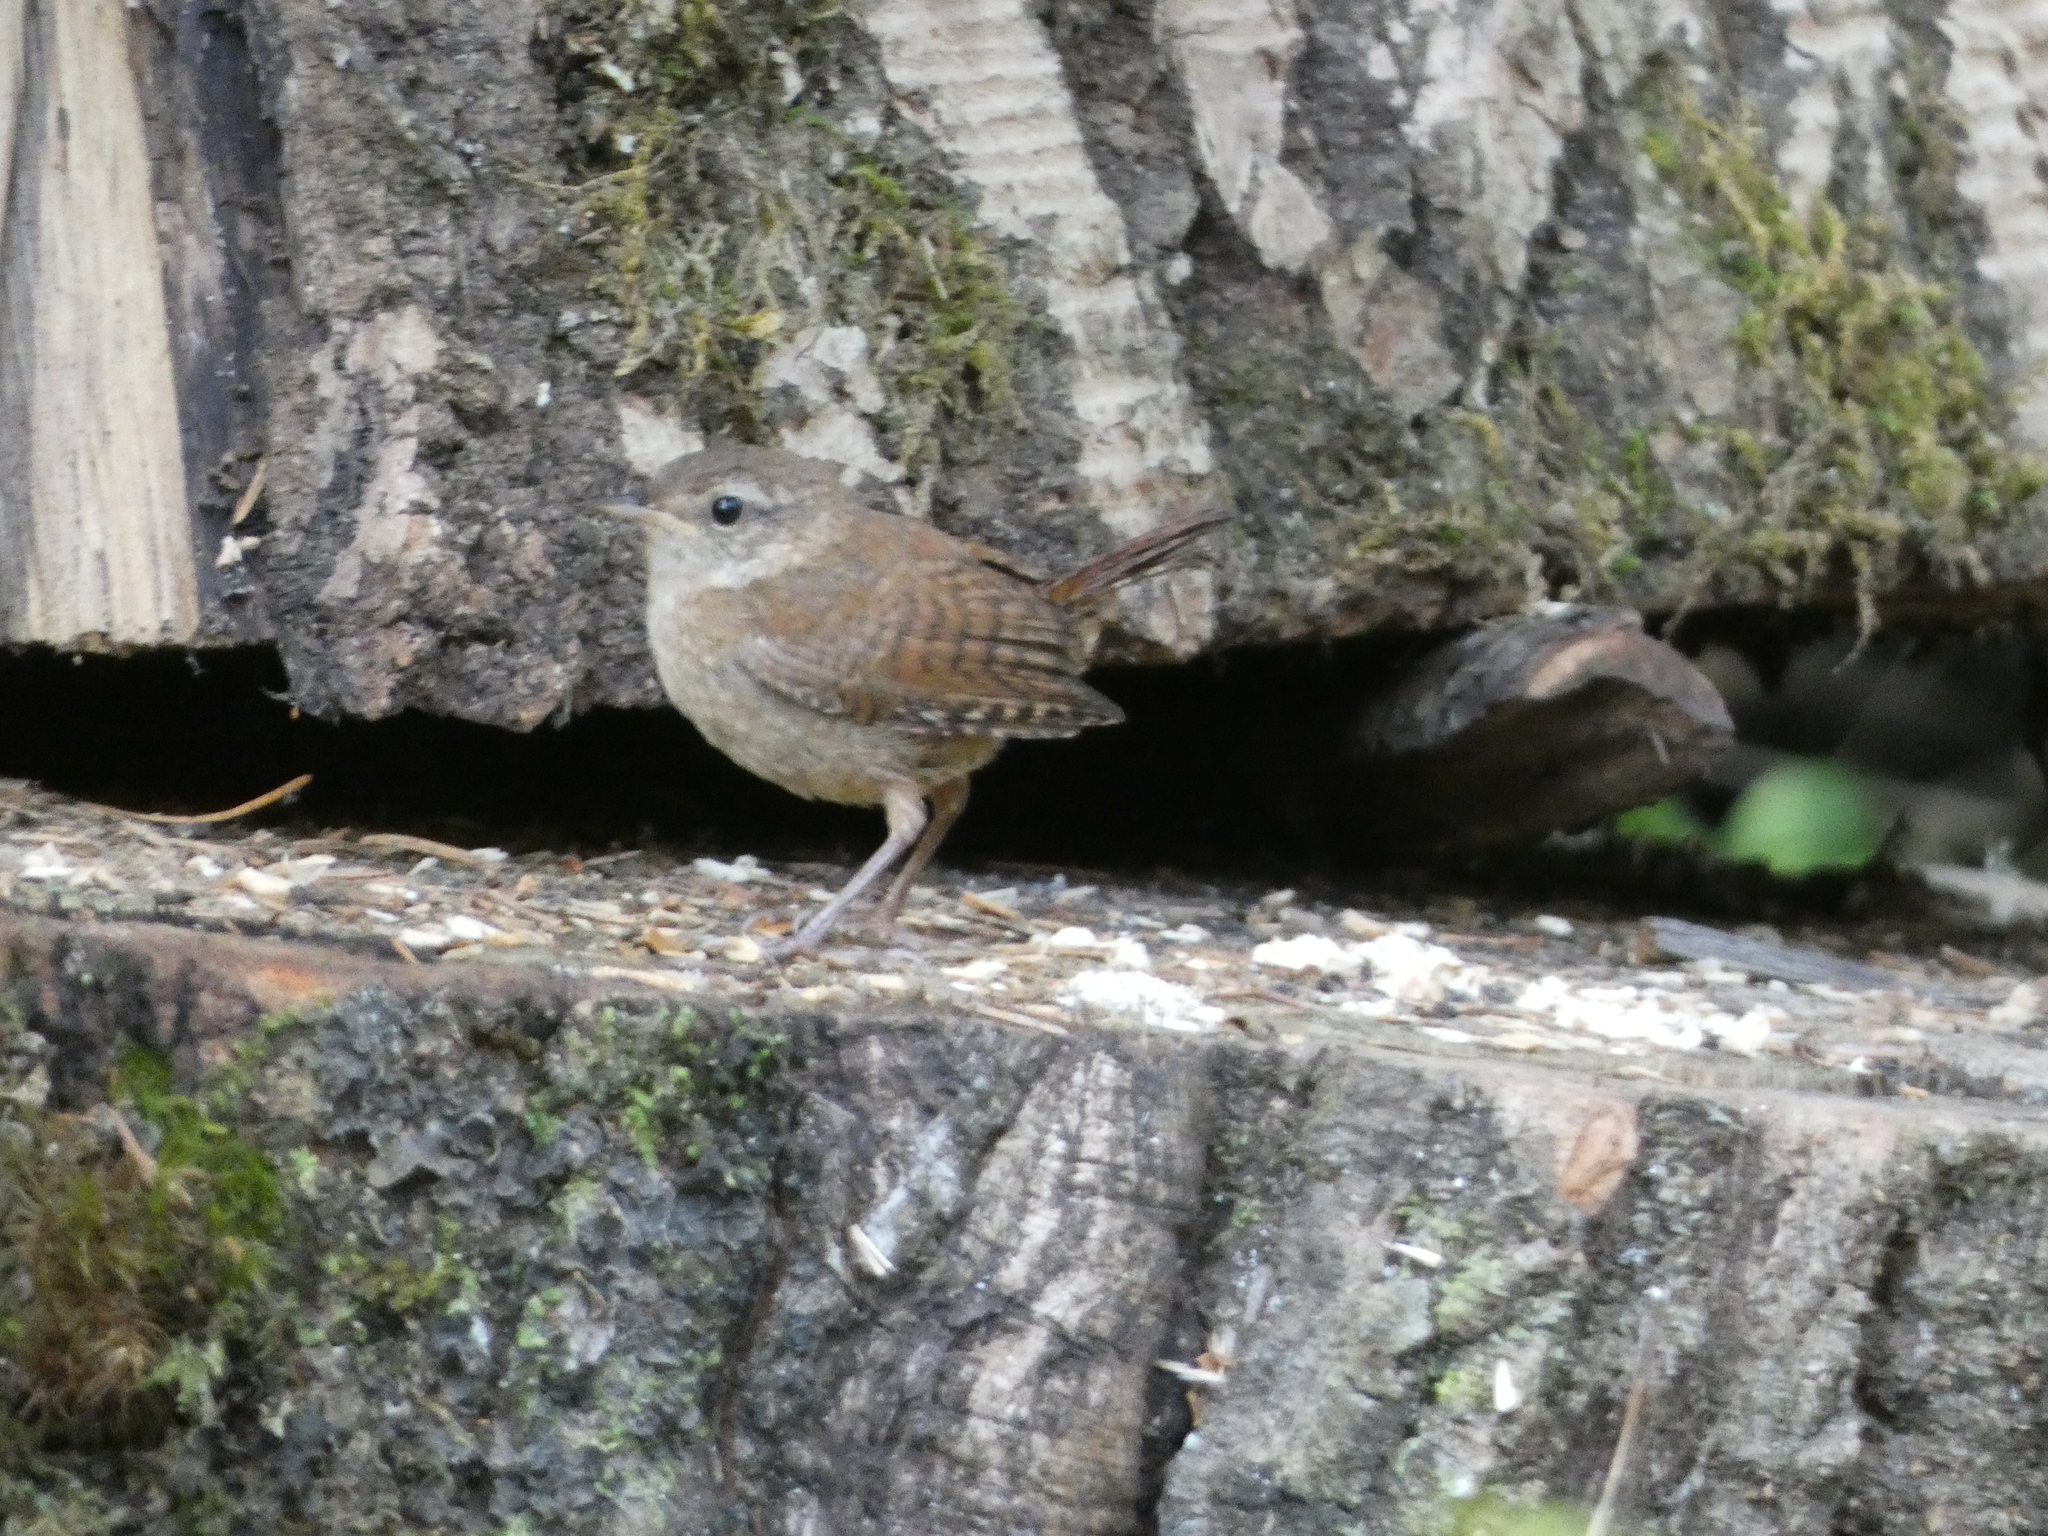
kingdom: Animalia
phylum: Chordata
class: Aves
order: Passeriformes
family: Troglodytidae
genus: Troglodytes
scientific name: Troglodytes troglodytes
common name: Eurasian wren
